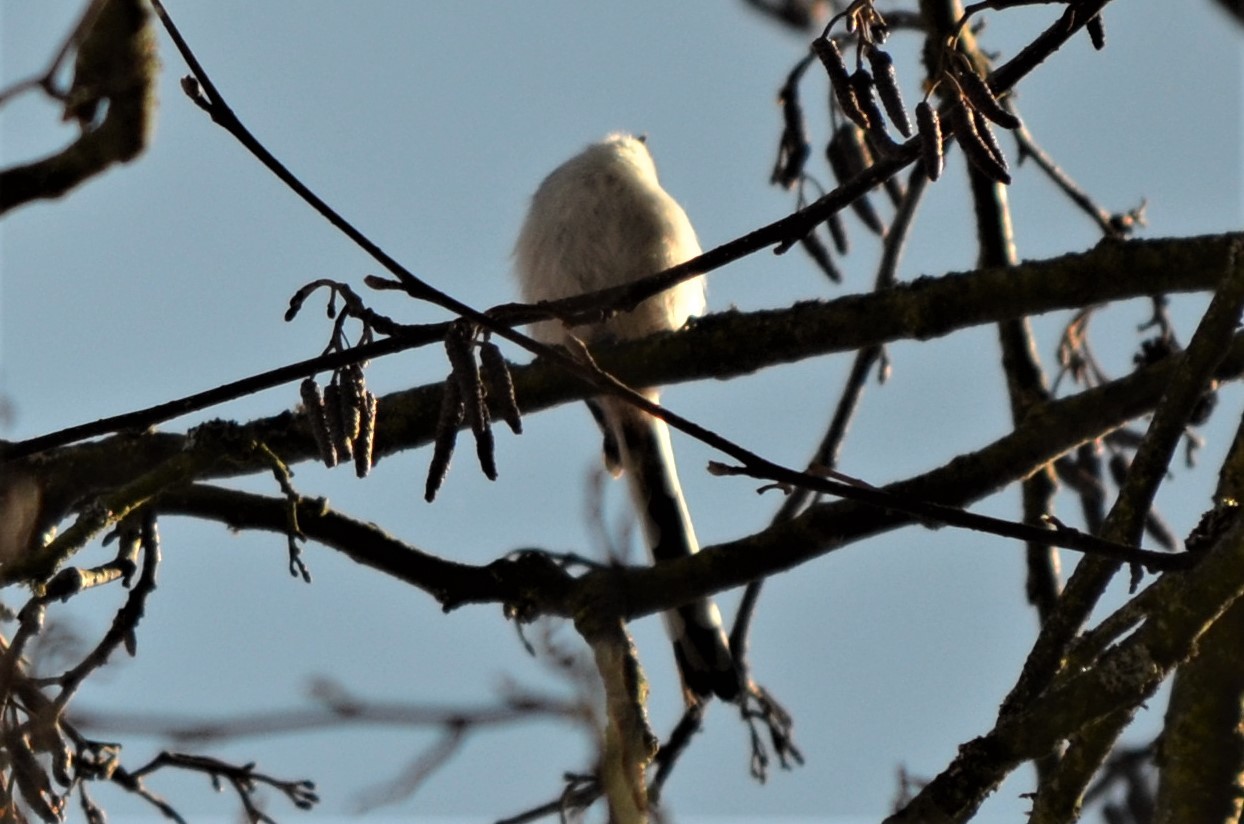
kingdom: Animalia
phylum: Chordata
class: Aves
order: Passeriformes
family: Aegithalidae
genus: Aegithalos
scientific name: Aegithalos caudatus
